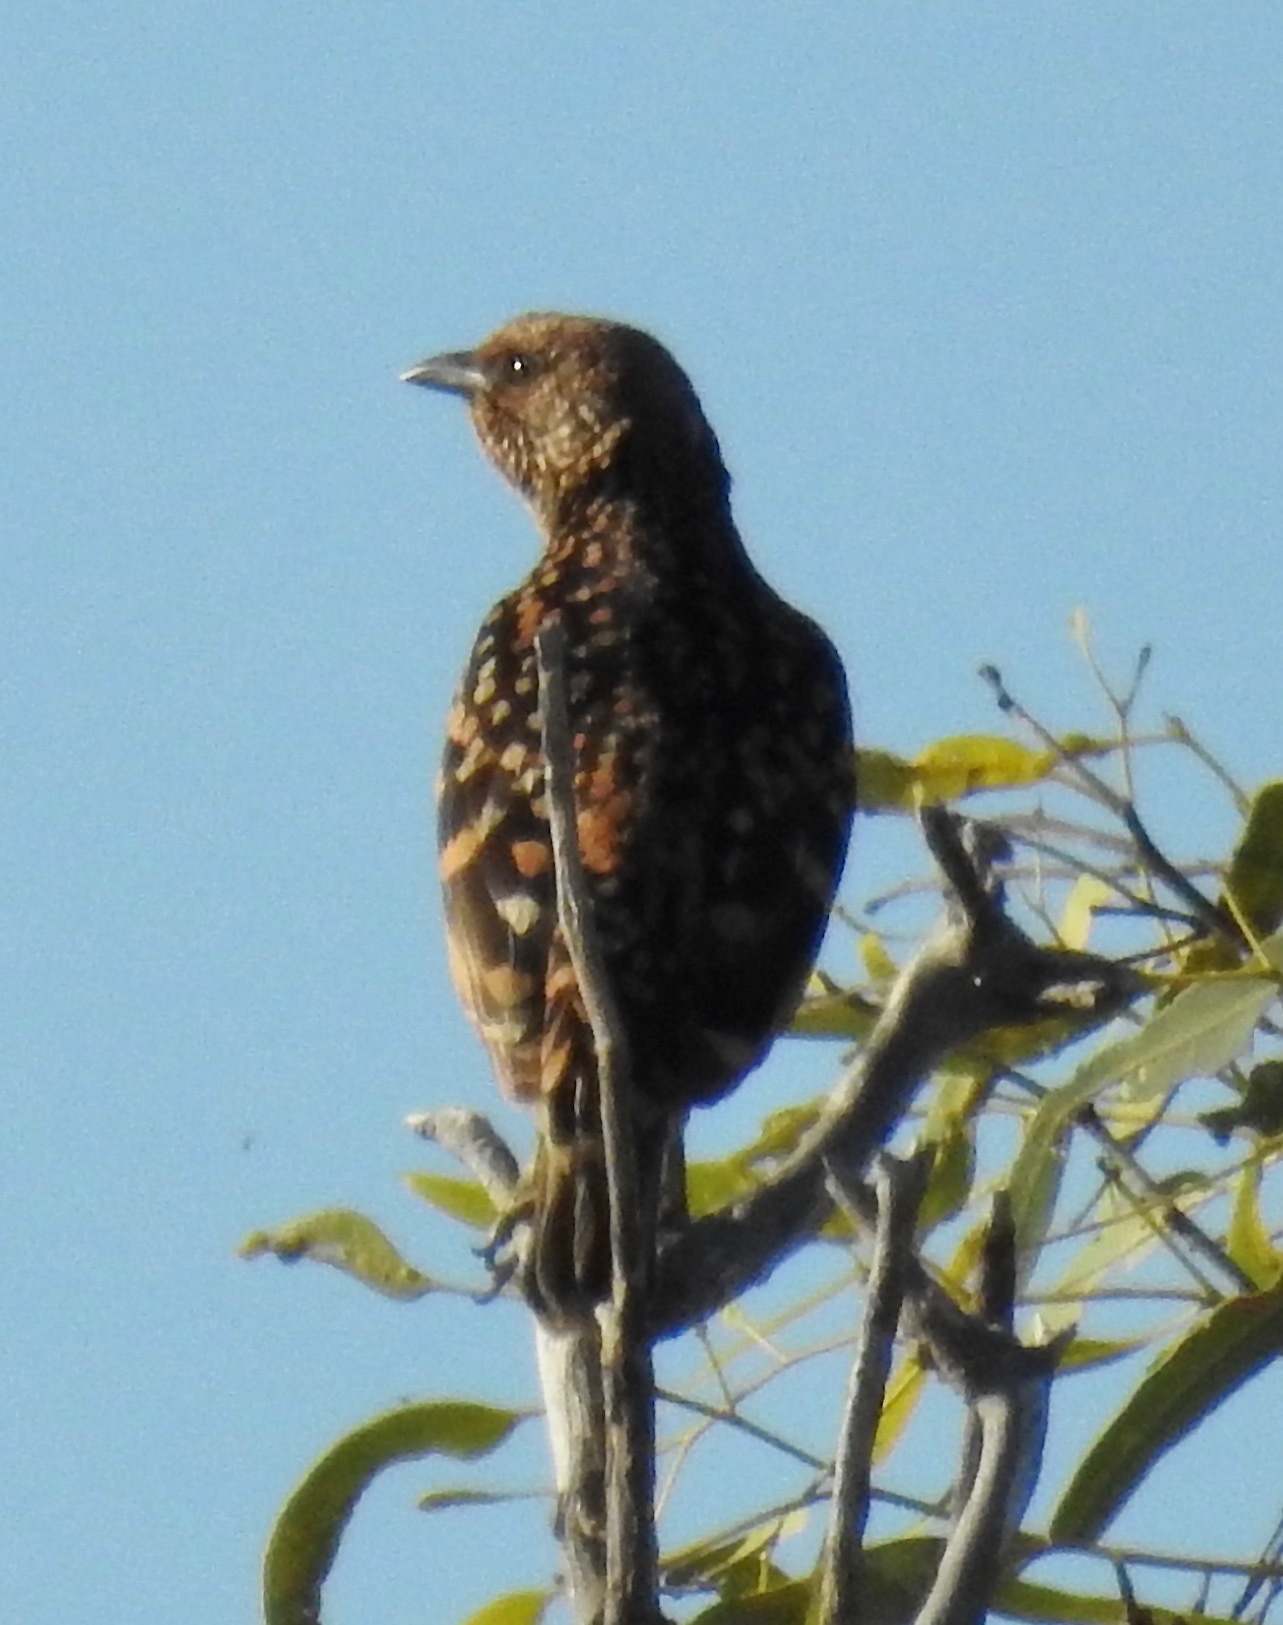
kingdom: Animalia
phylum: Chordata
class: Aves
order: Passeriformes
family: Ptilonorhynchidae
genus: Chlamydera
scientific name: Chlamydera guttata
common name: Western bowerbird
